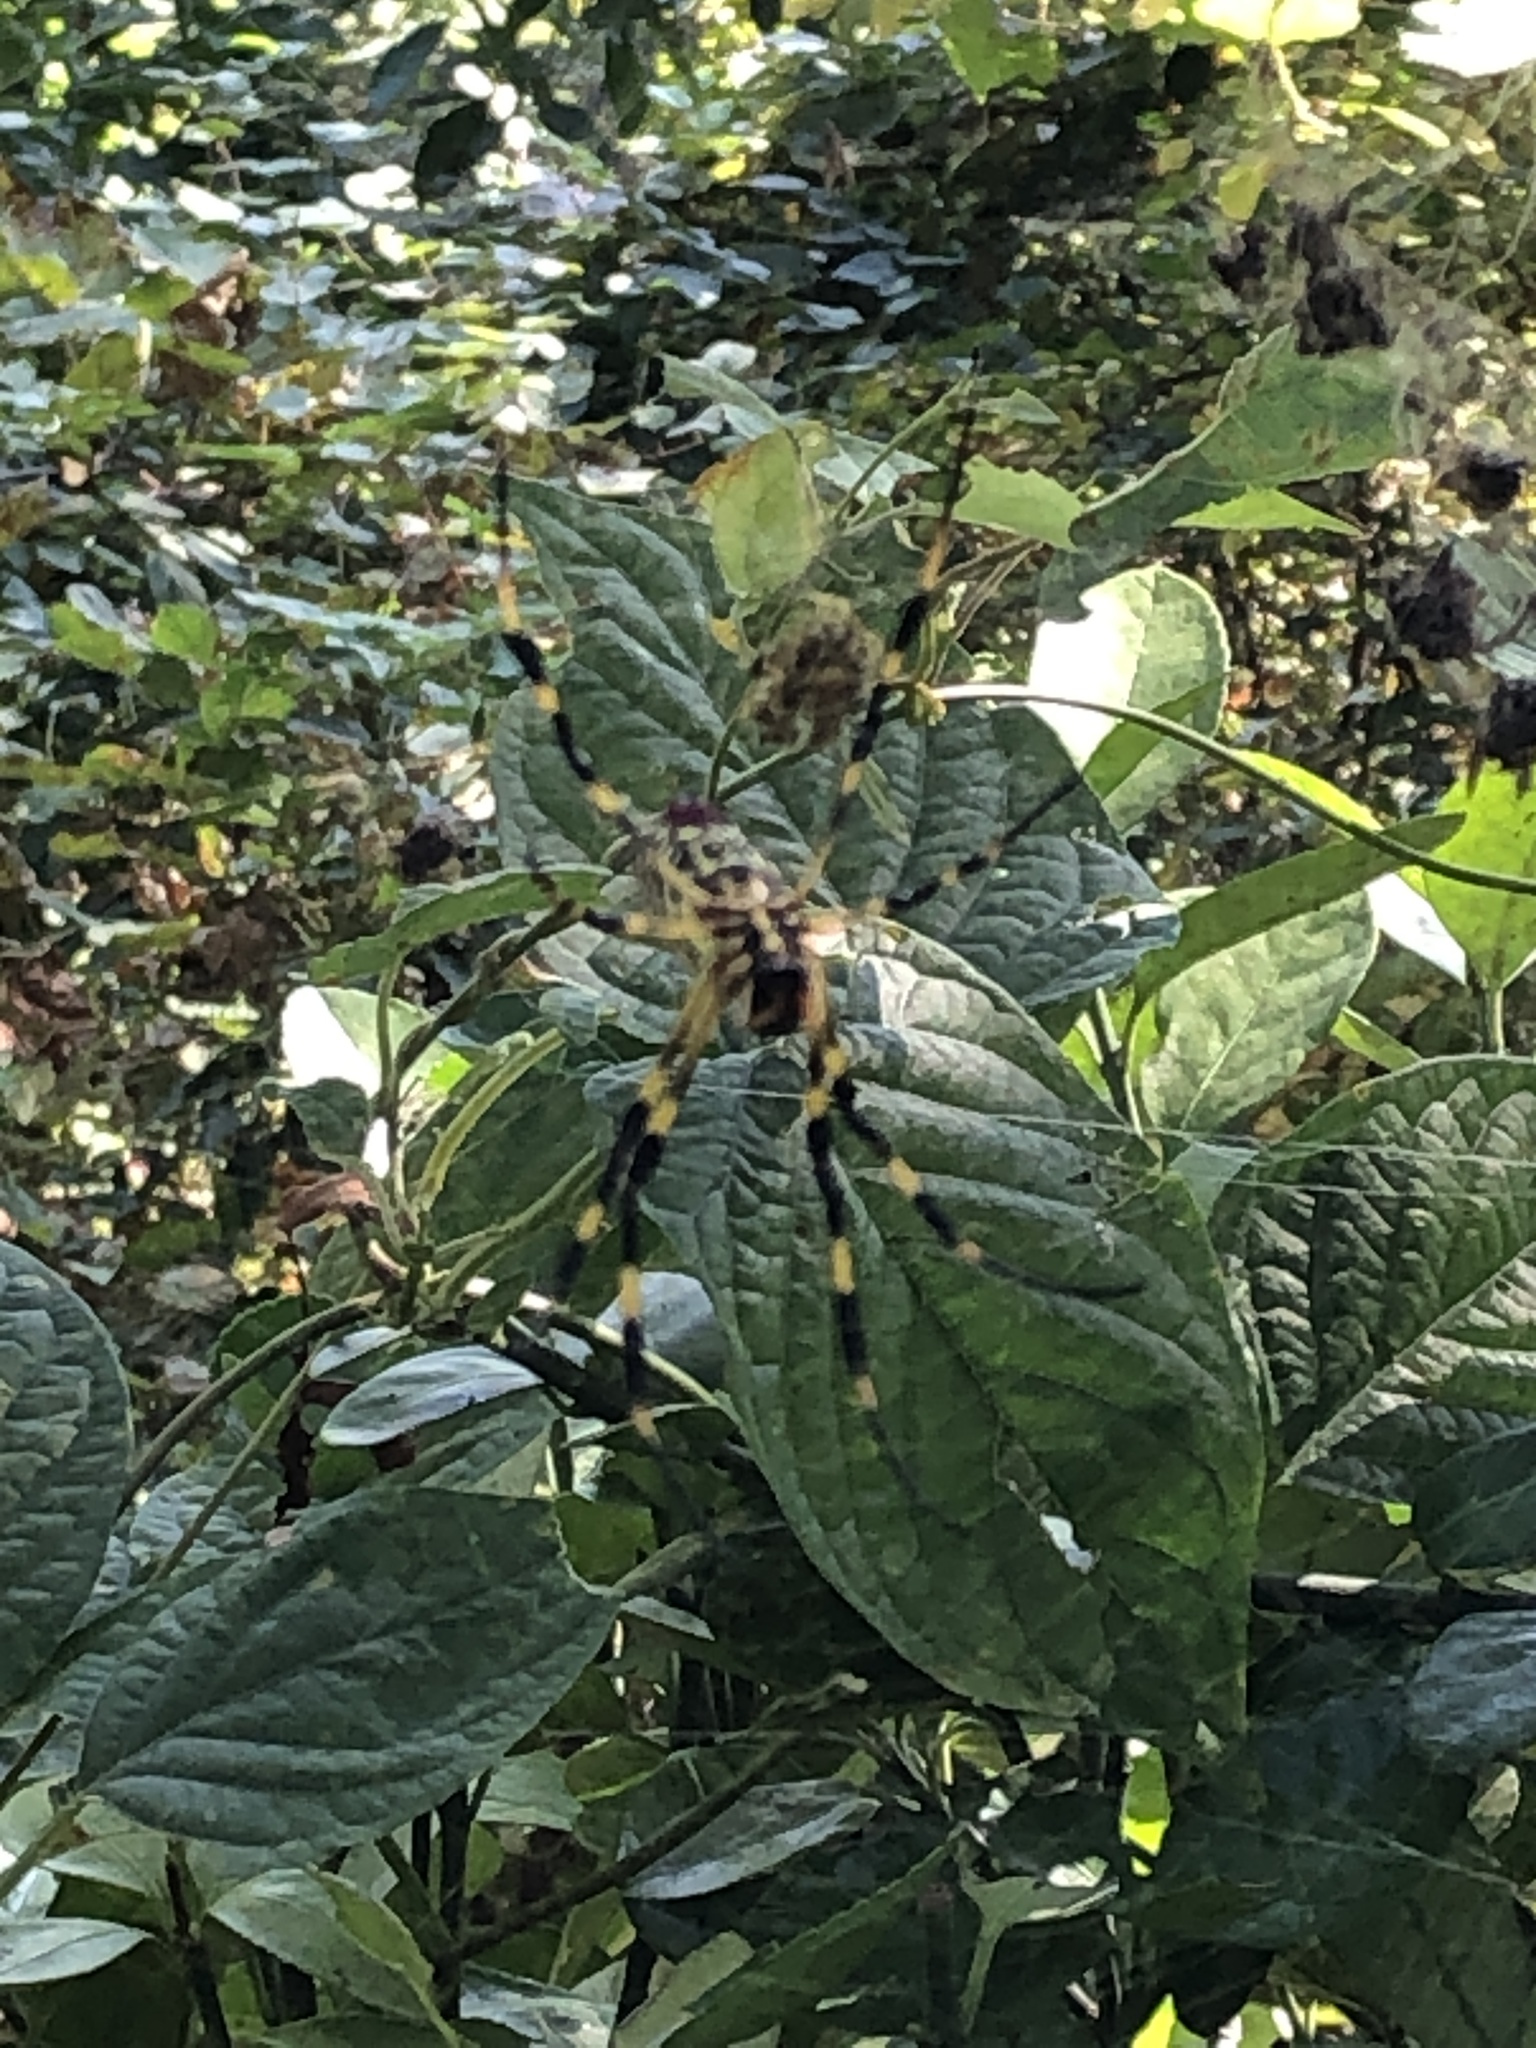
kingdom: Animalia
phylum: Arthropoda
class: Arachnida
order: Araneae
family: Araneidae
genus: Trichonephila
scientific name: Trichonephila clavata
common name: Jorō spider
